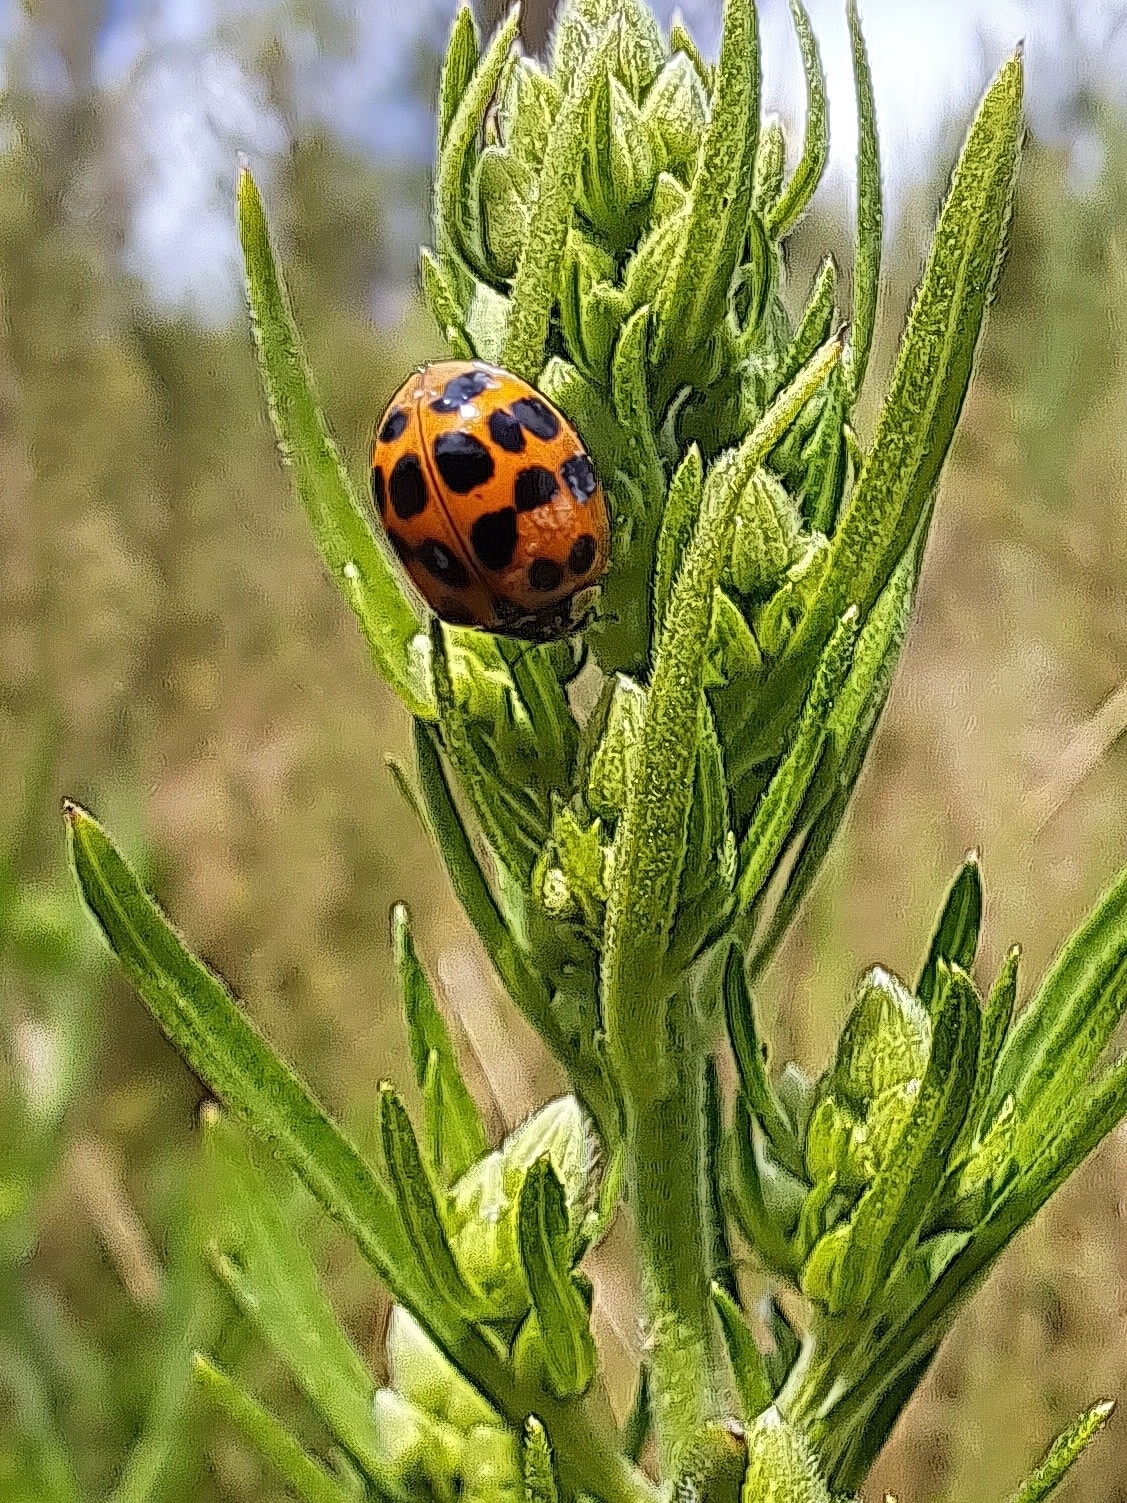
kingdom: Animalia
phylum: Arthropoda
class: Insecta
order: Coleoptera
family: Coccinellidae
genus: Harmonia
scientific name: Harmonia axyridis
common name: Harlequin ladybird
